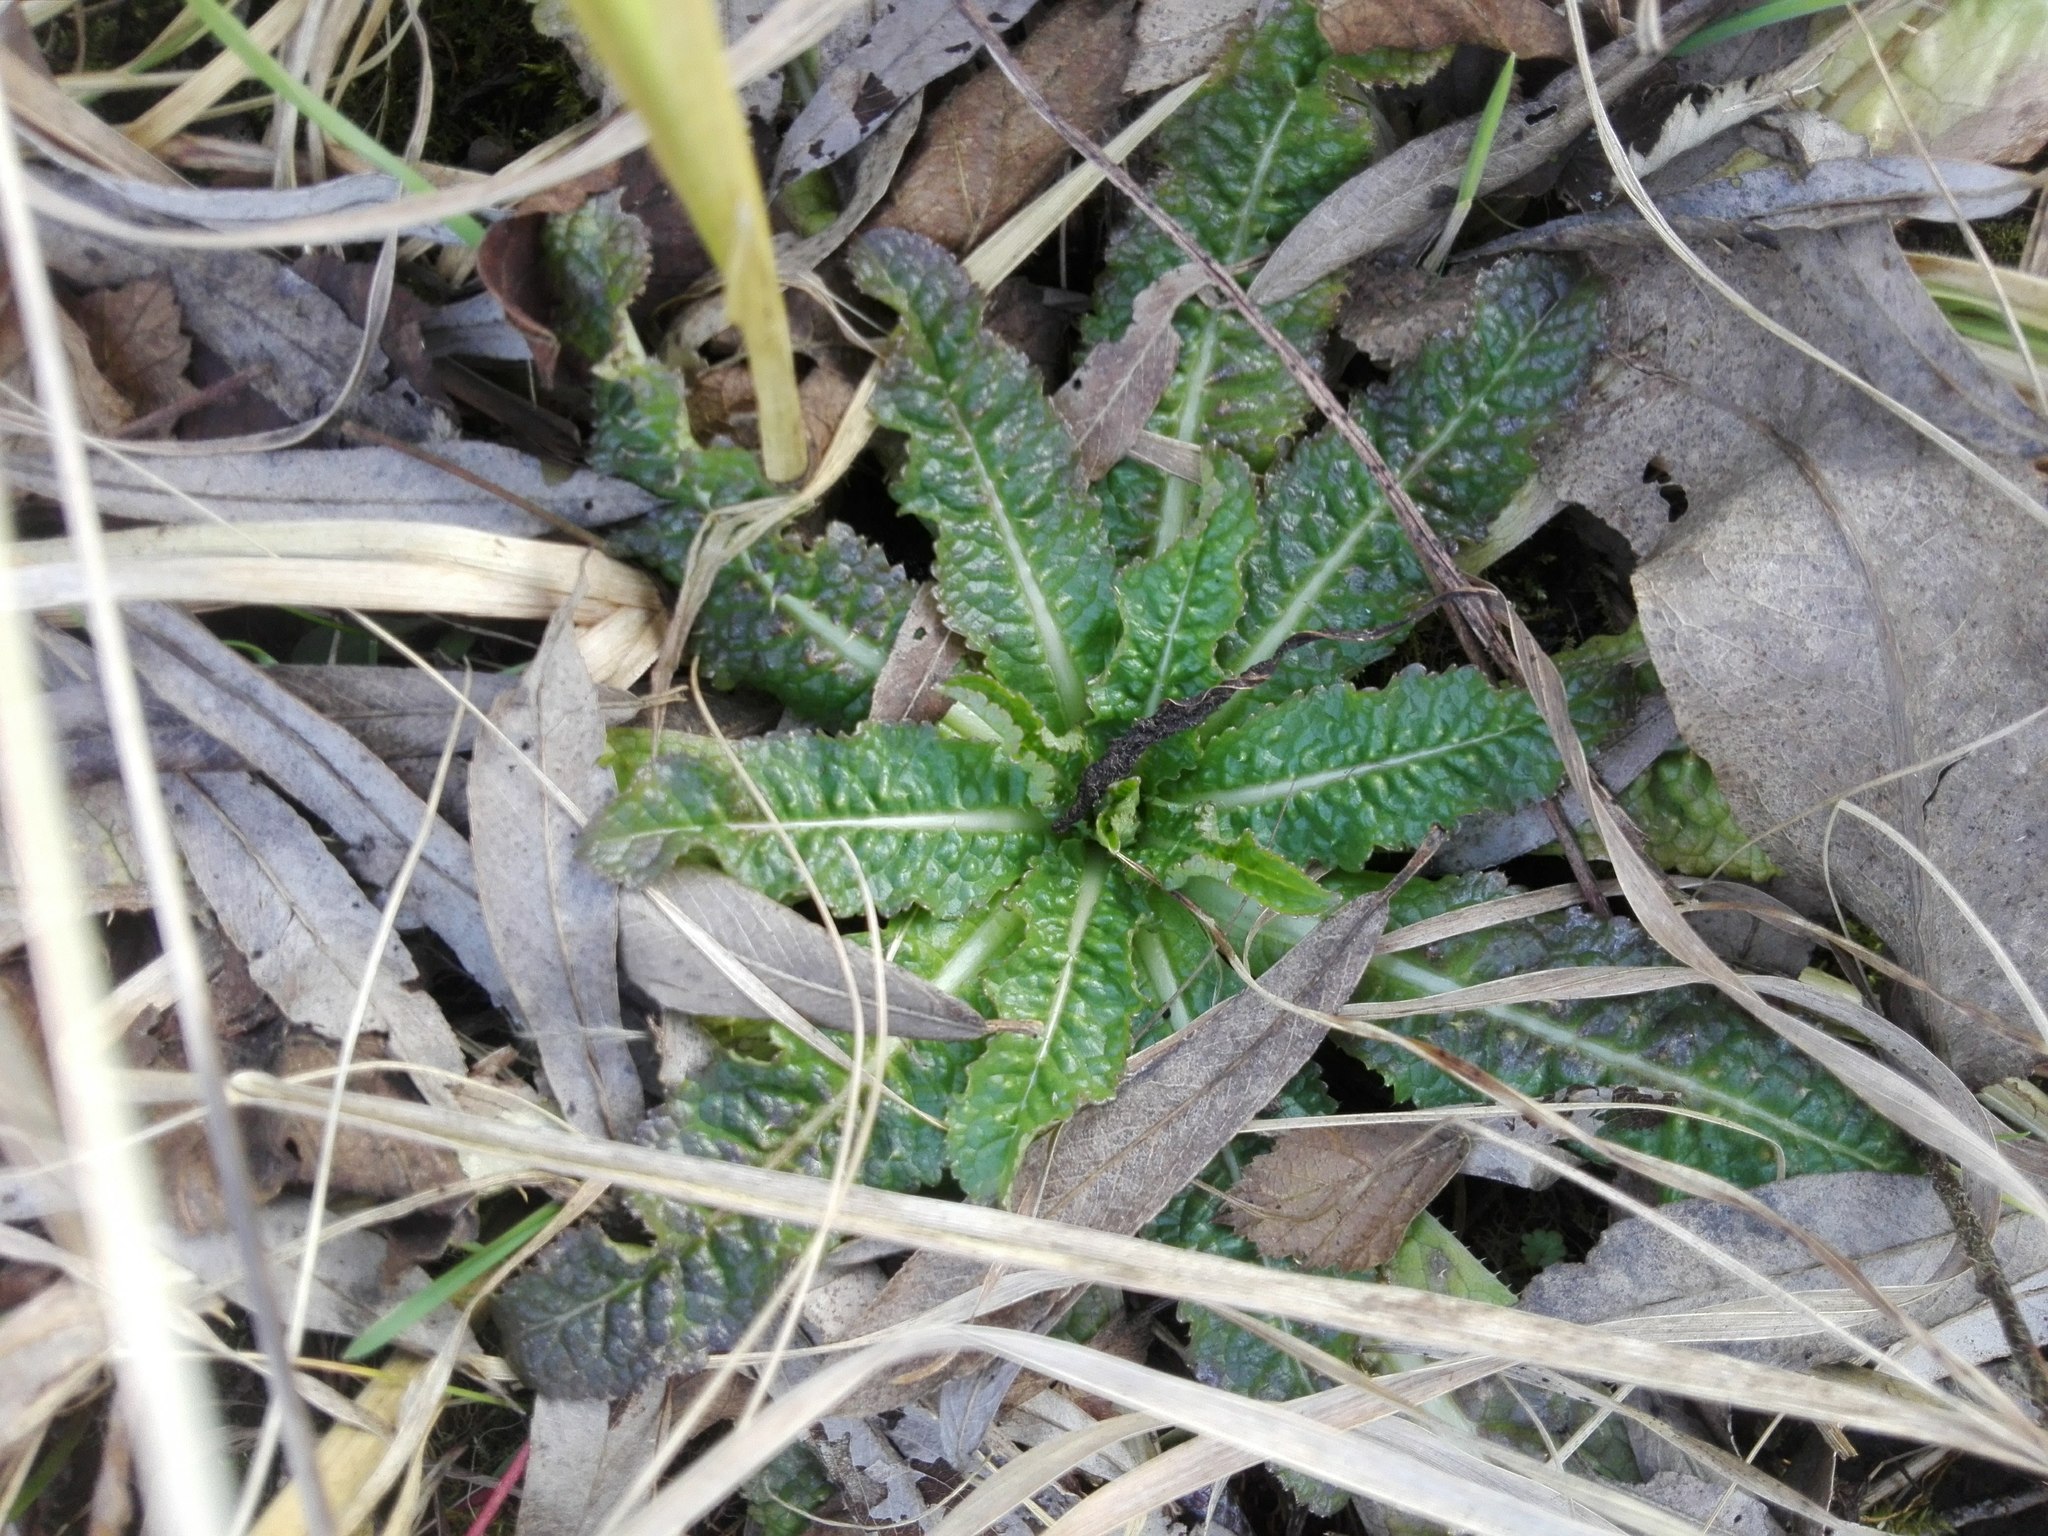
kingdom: Plantae
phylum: Tracheophyta
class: Magnoliopsida
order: Dipsacales
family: Caprifoliaceae
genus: Dipsacus
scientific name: Dipsacus fullonum
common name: Teasel
